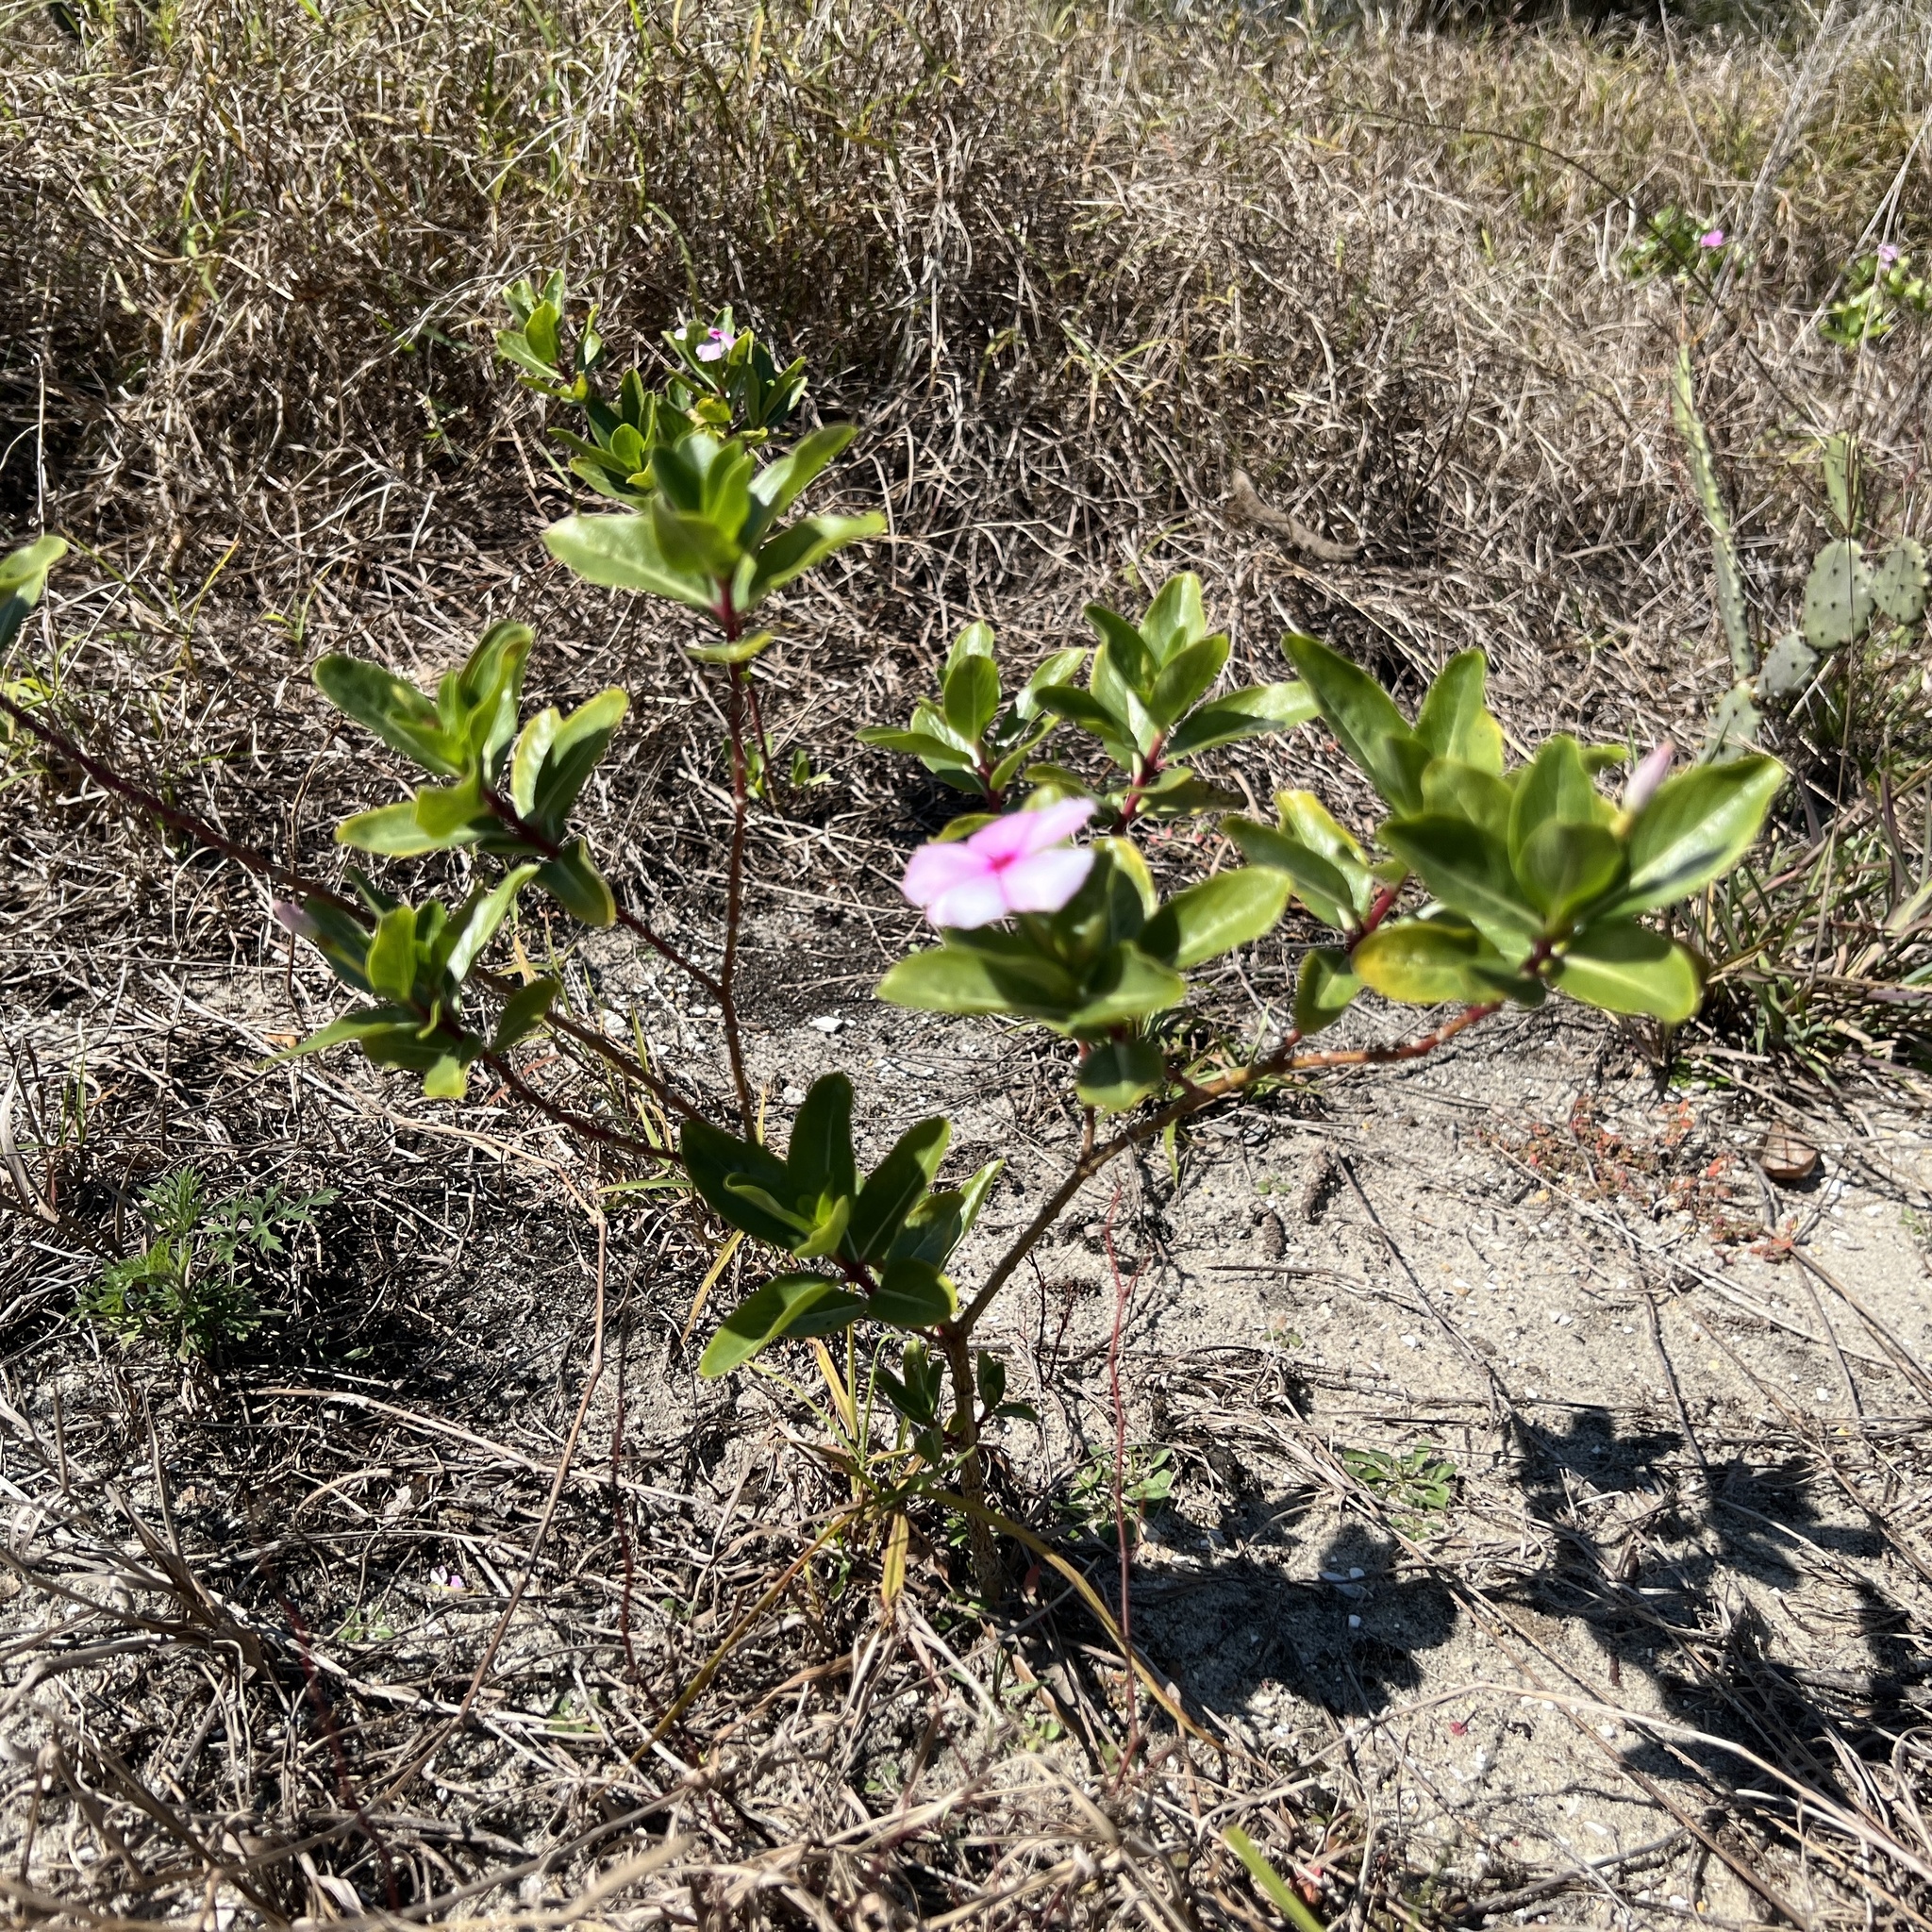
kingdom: Plantae
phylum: Tracheophyta
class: Magnoliopsida
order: Gentianales
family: Apocynaceae
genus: Catharanthus
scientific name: Catharanthus roseus
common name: Madagascar periwinkle
